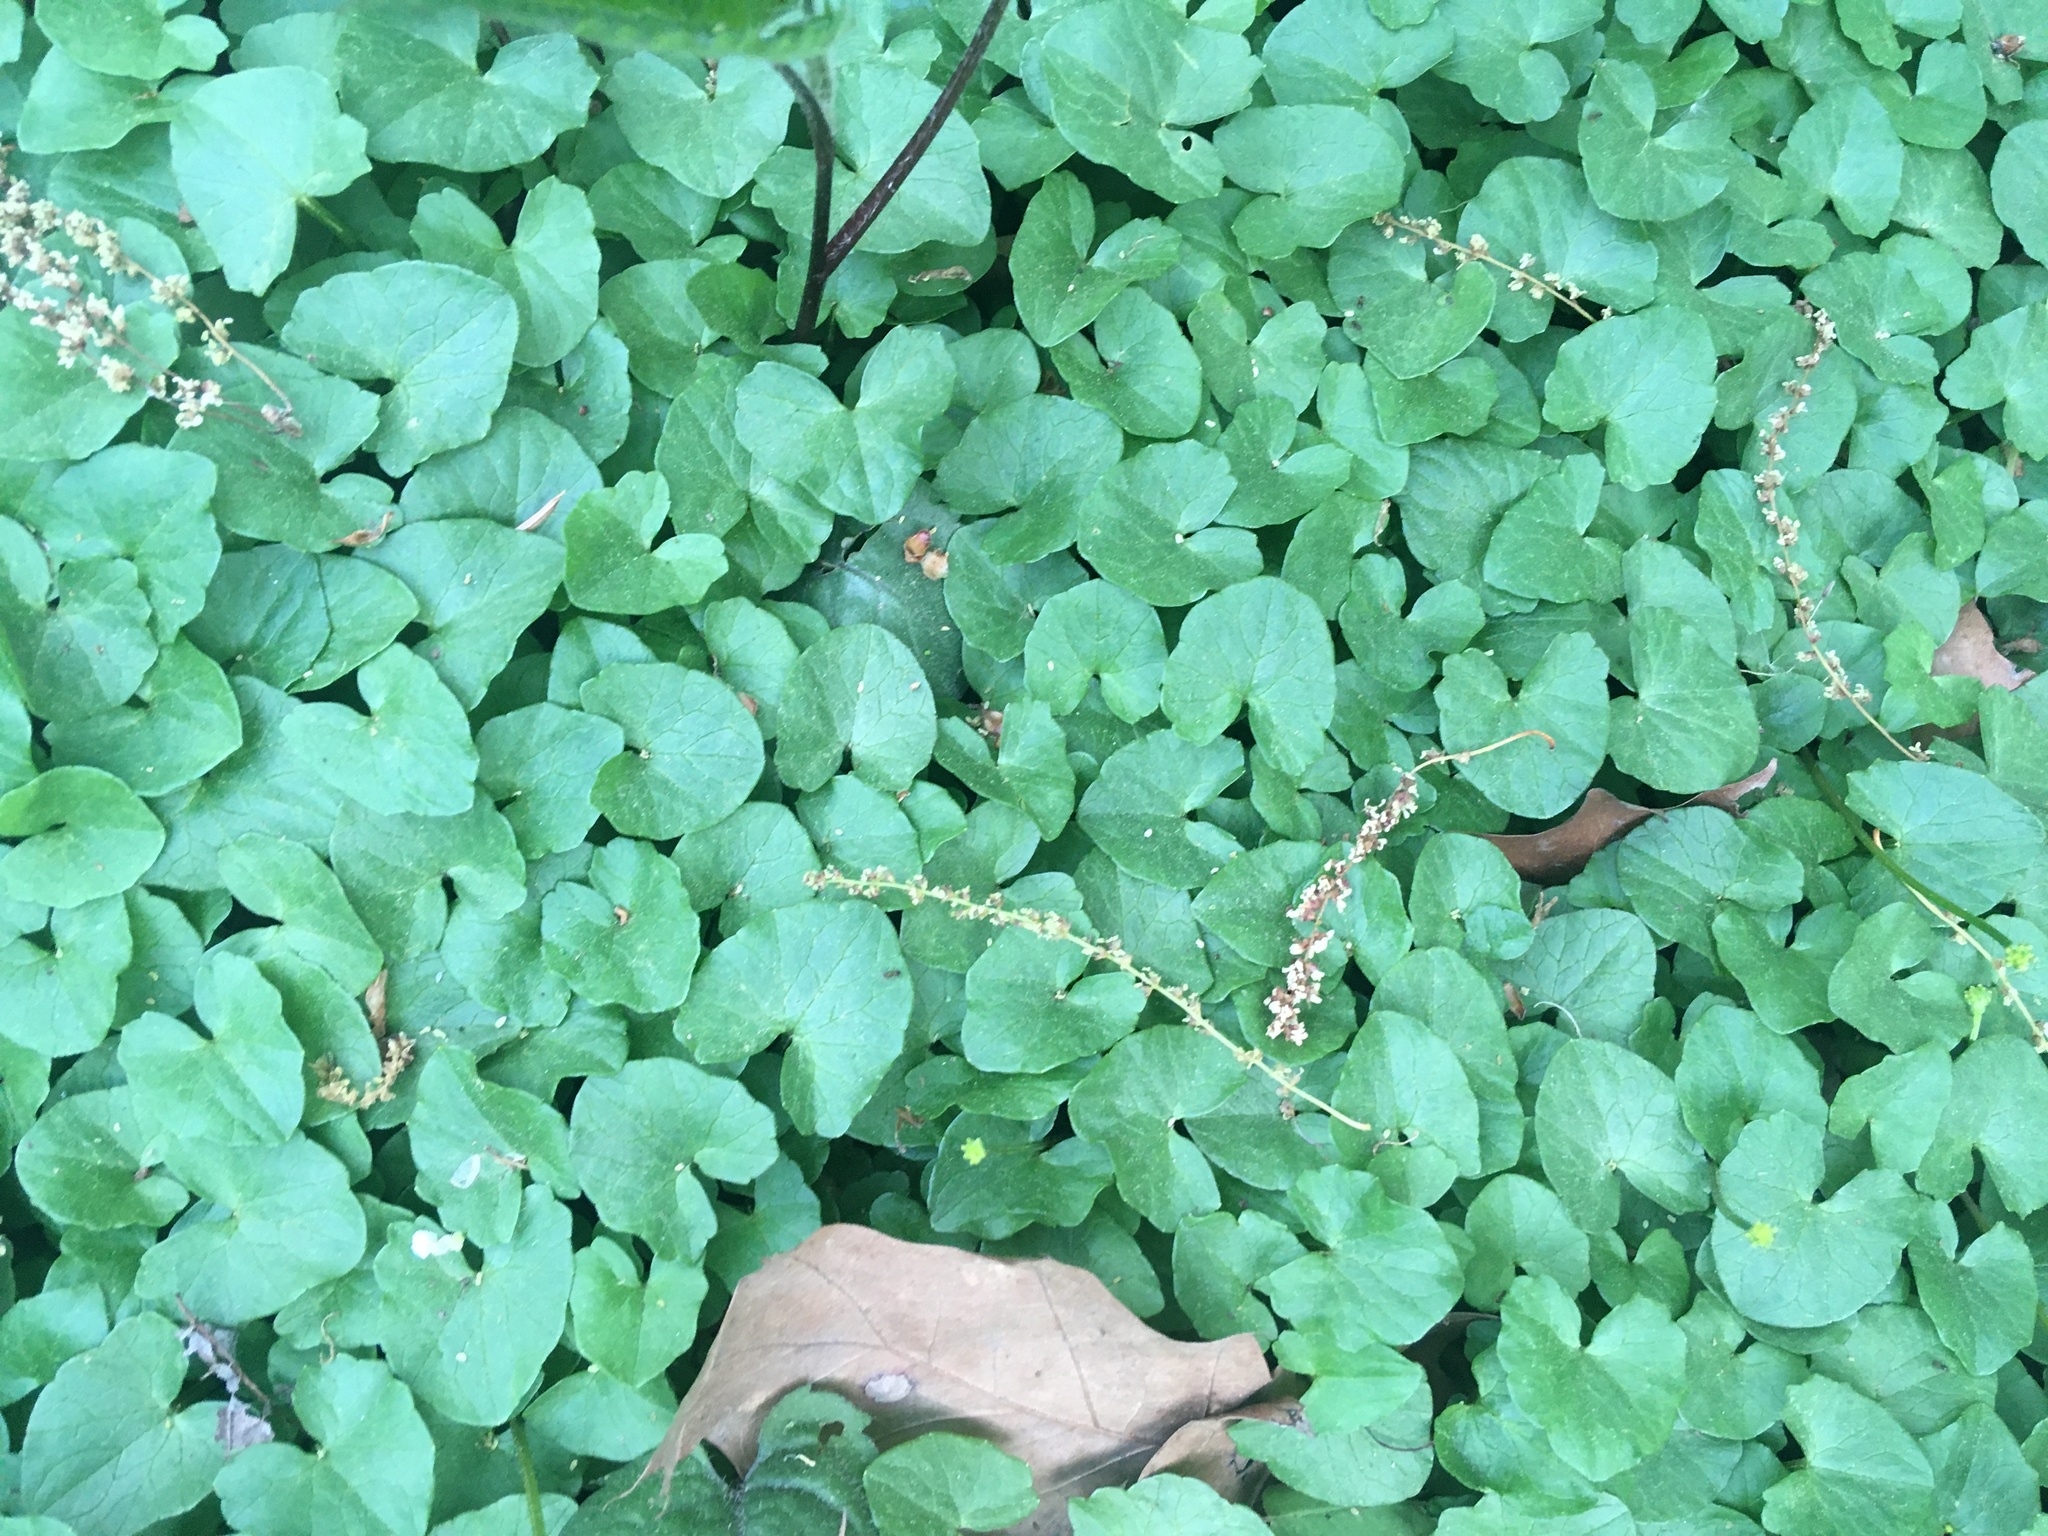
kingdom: Plantae
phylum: Tracheophyta
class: Magnoliopsida
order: Ranunculales
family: Ranunculaceae
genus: Ficaria
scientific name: Ficaria verna
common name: Lesser celandine
